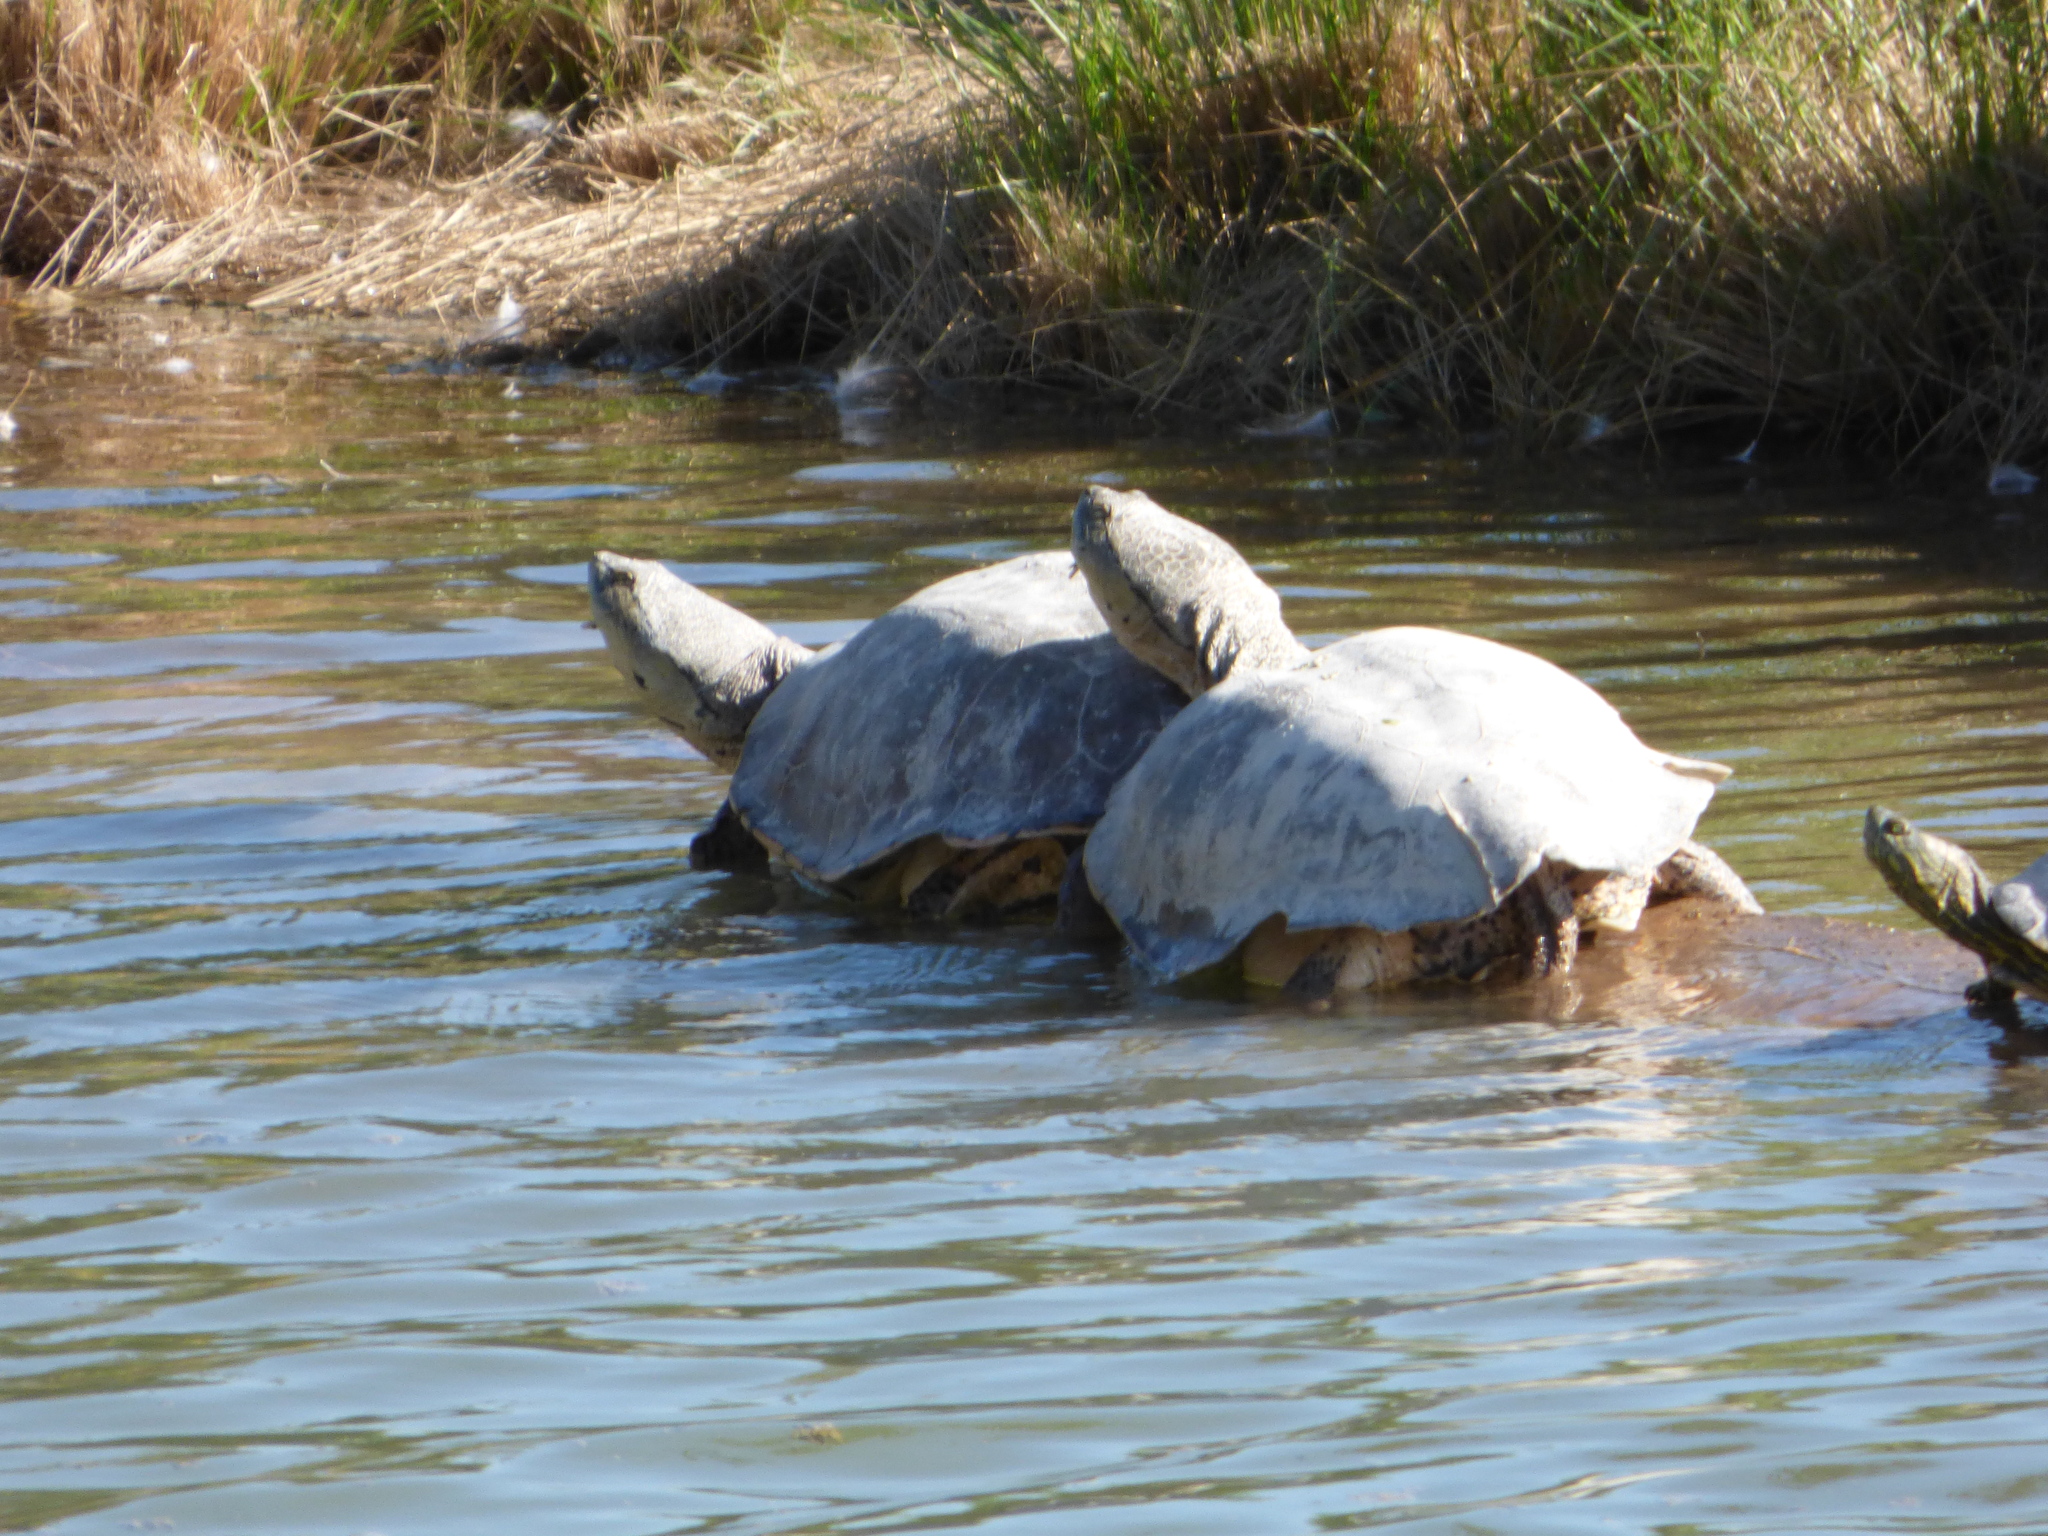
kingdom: Animalia
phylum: Chordata
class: Testudines
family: Chelidae
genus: Phrynops
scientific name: Phrynops hilarii
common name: Side-necked turtle of saint hillaire
